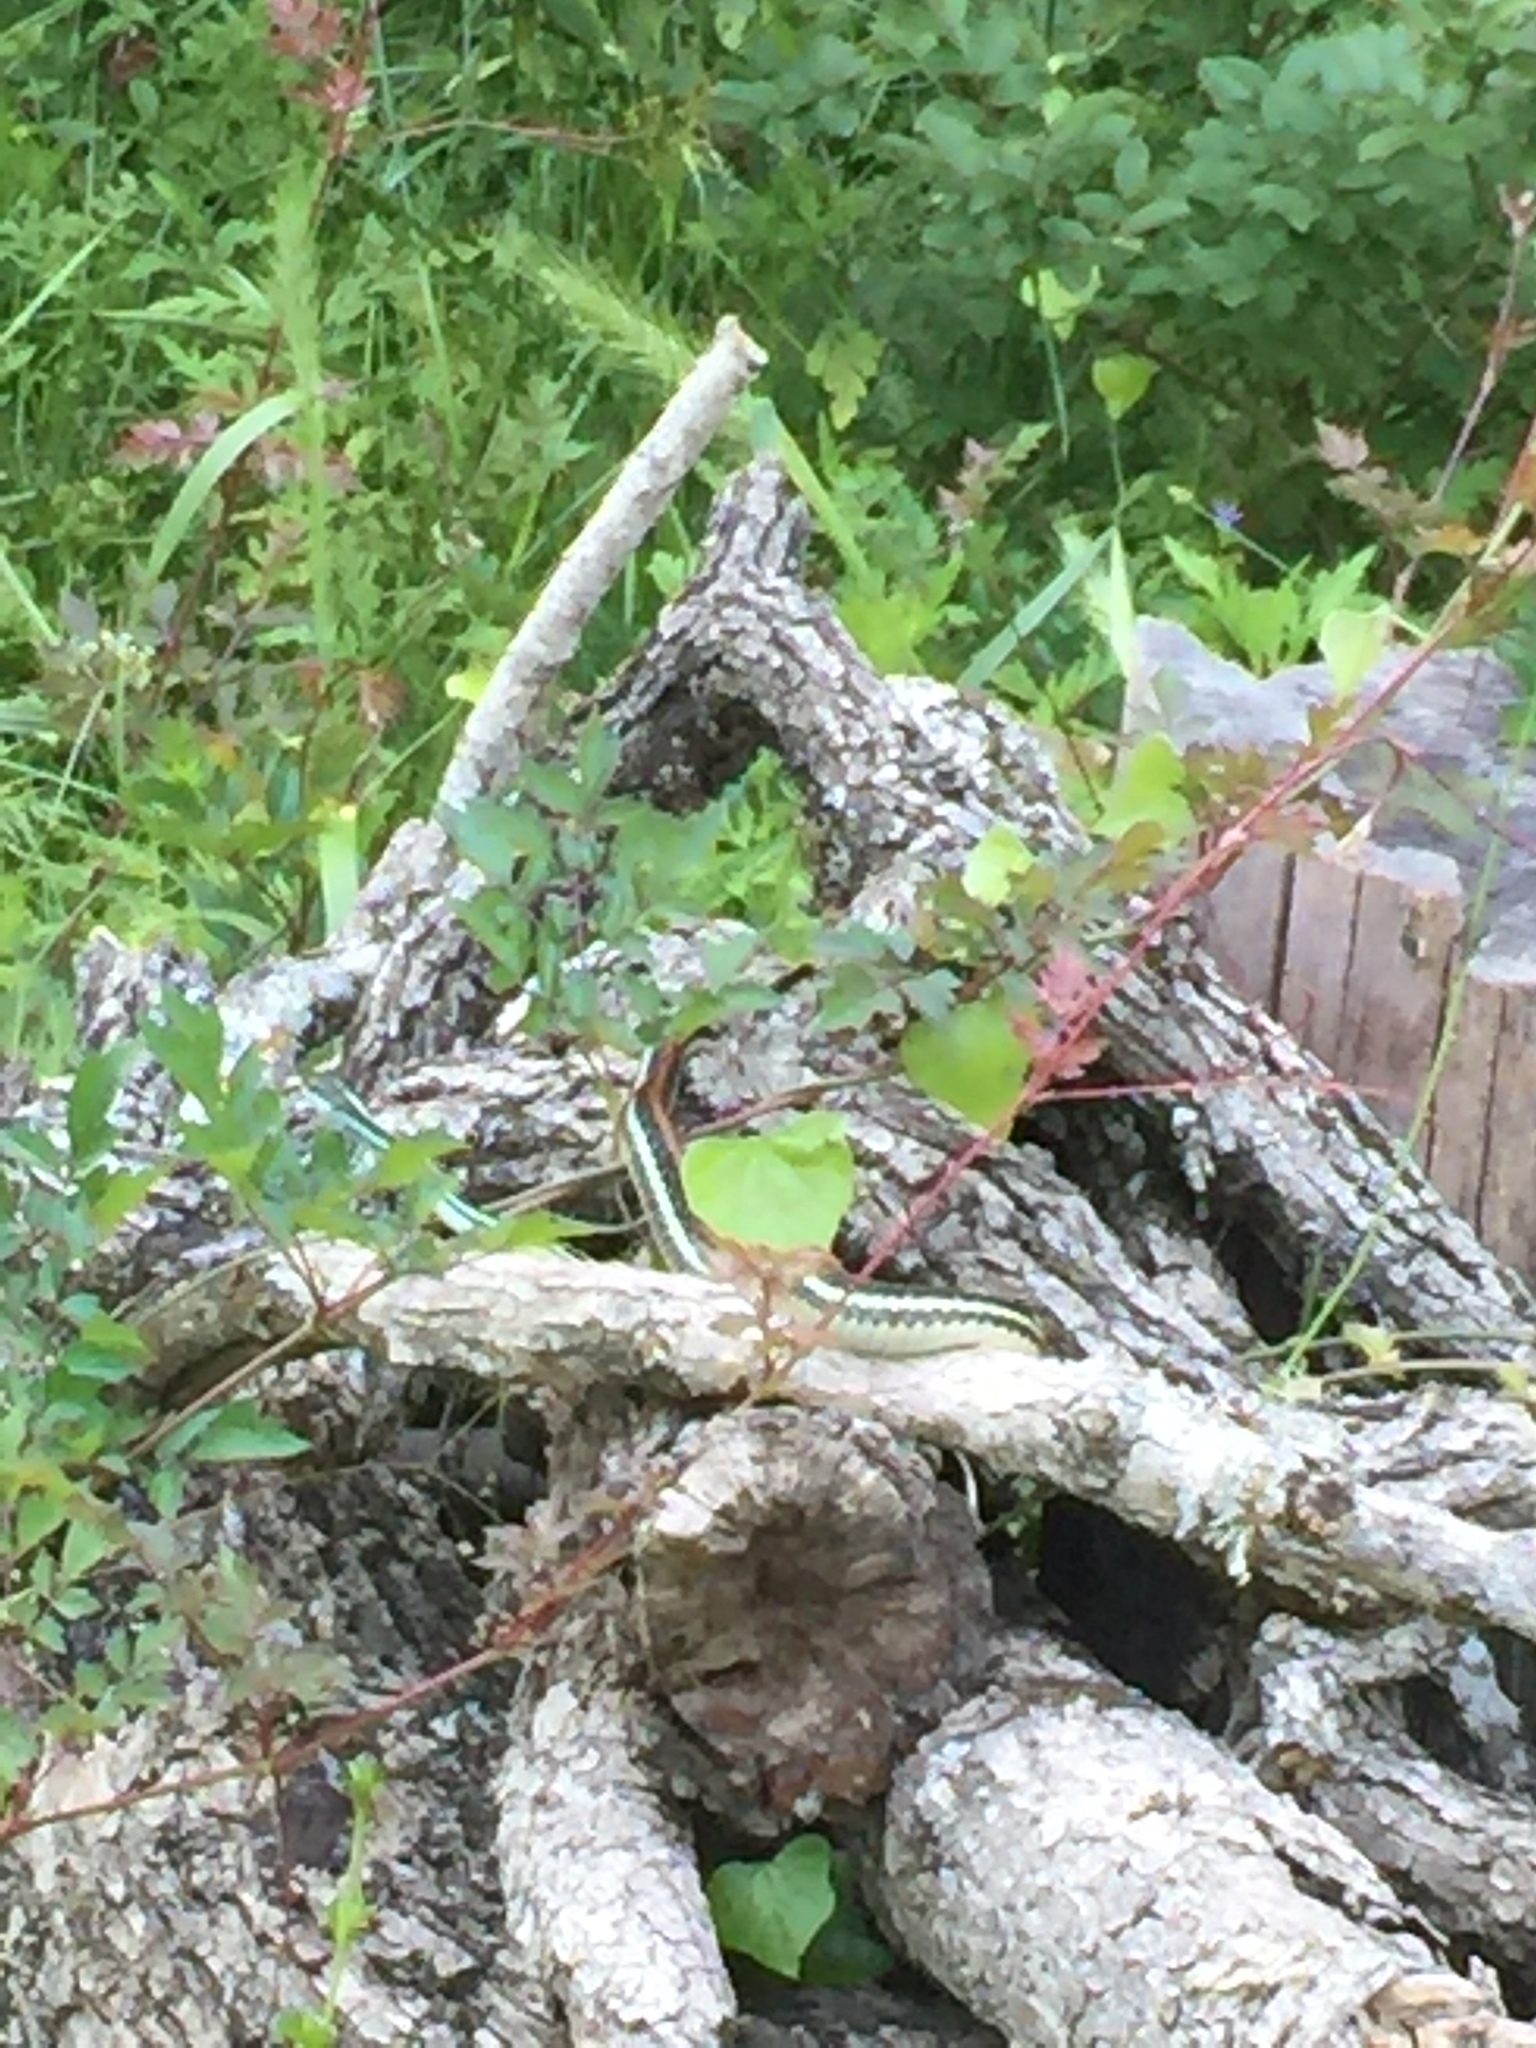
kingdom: Animalia
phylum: Chordata
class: Squamata
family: Colubridae
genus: Thamnophis
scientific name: Thamnophis proximus
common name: Western ribbon snake
